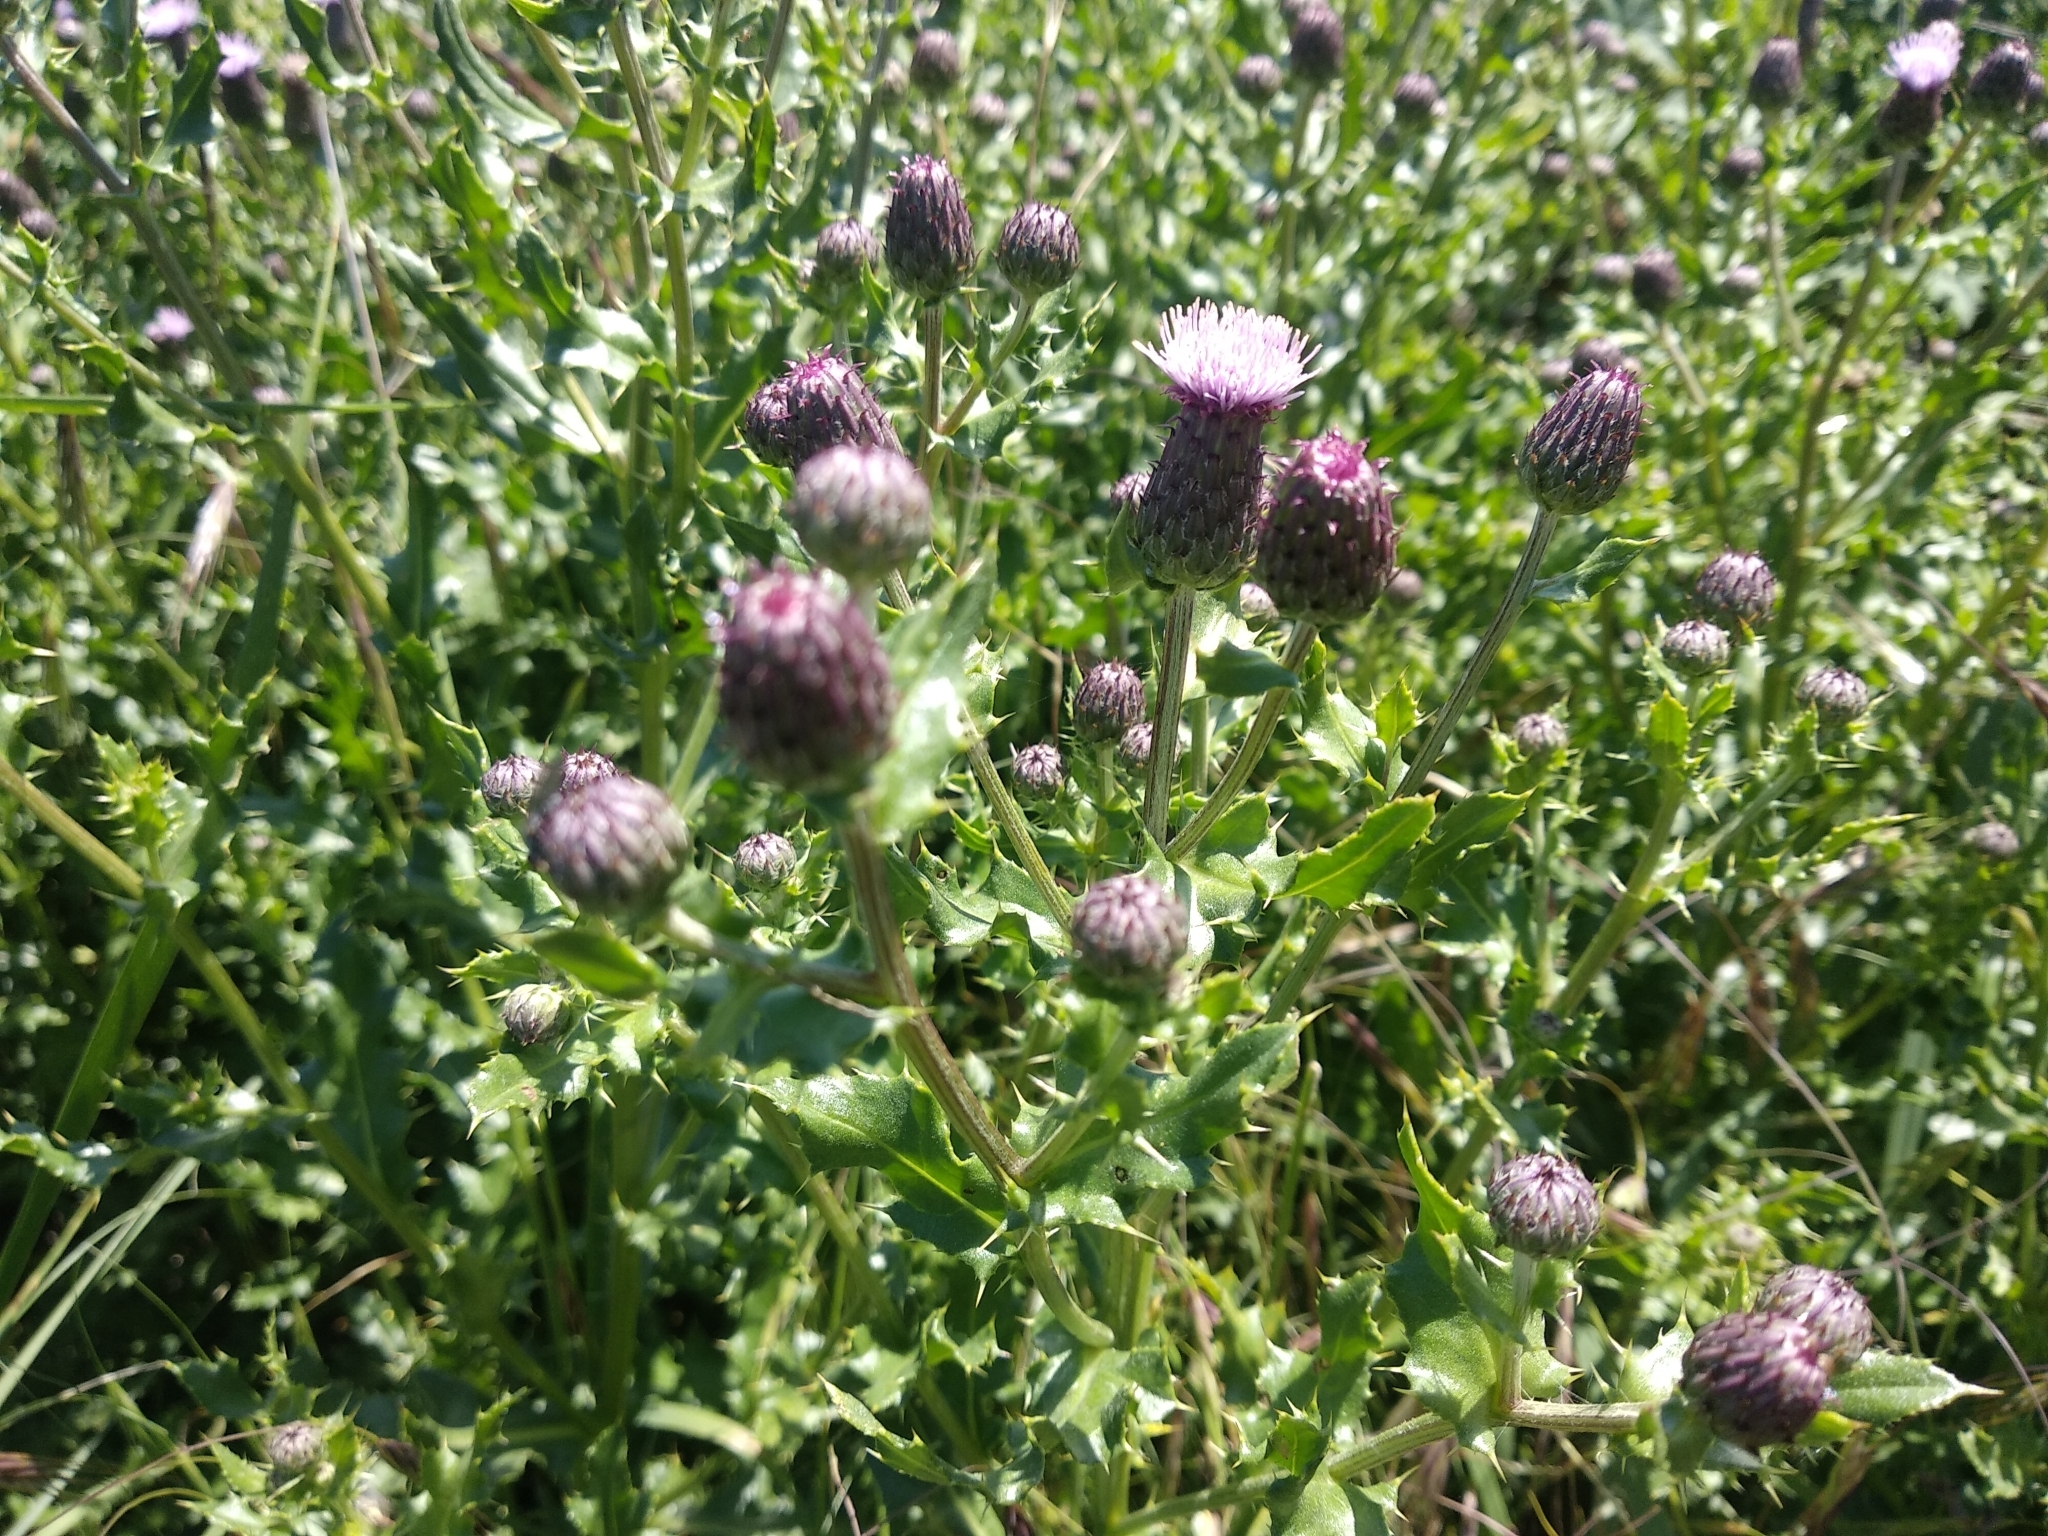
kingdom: Plantae
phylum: Tracheophyta
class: Magnoliopsida
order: Asterales
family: Asteraceae
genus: Cirsium
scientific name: Cirsium arvense
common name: Creeping thistle
